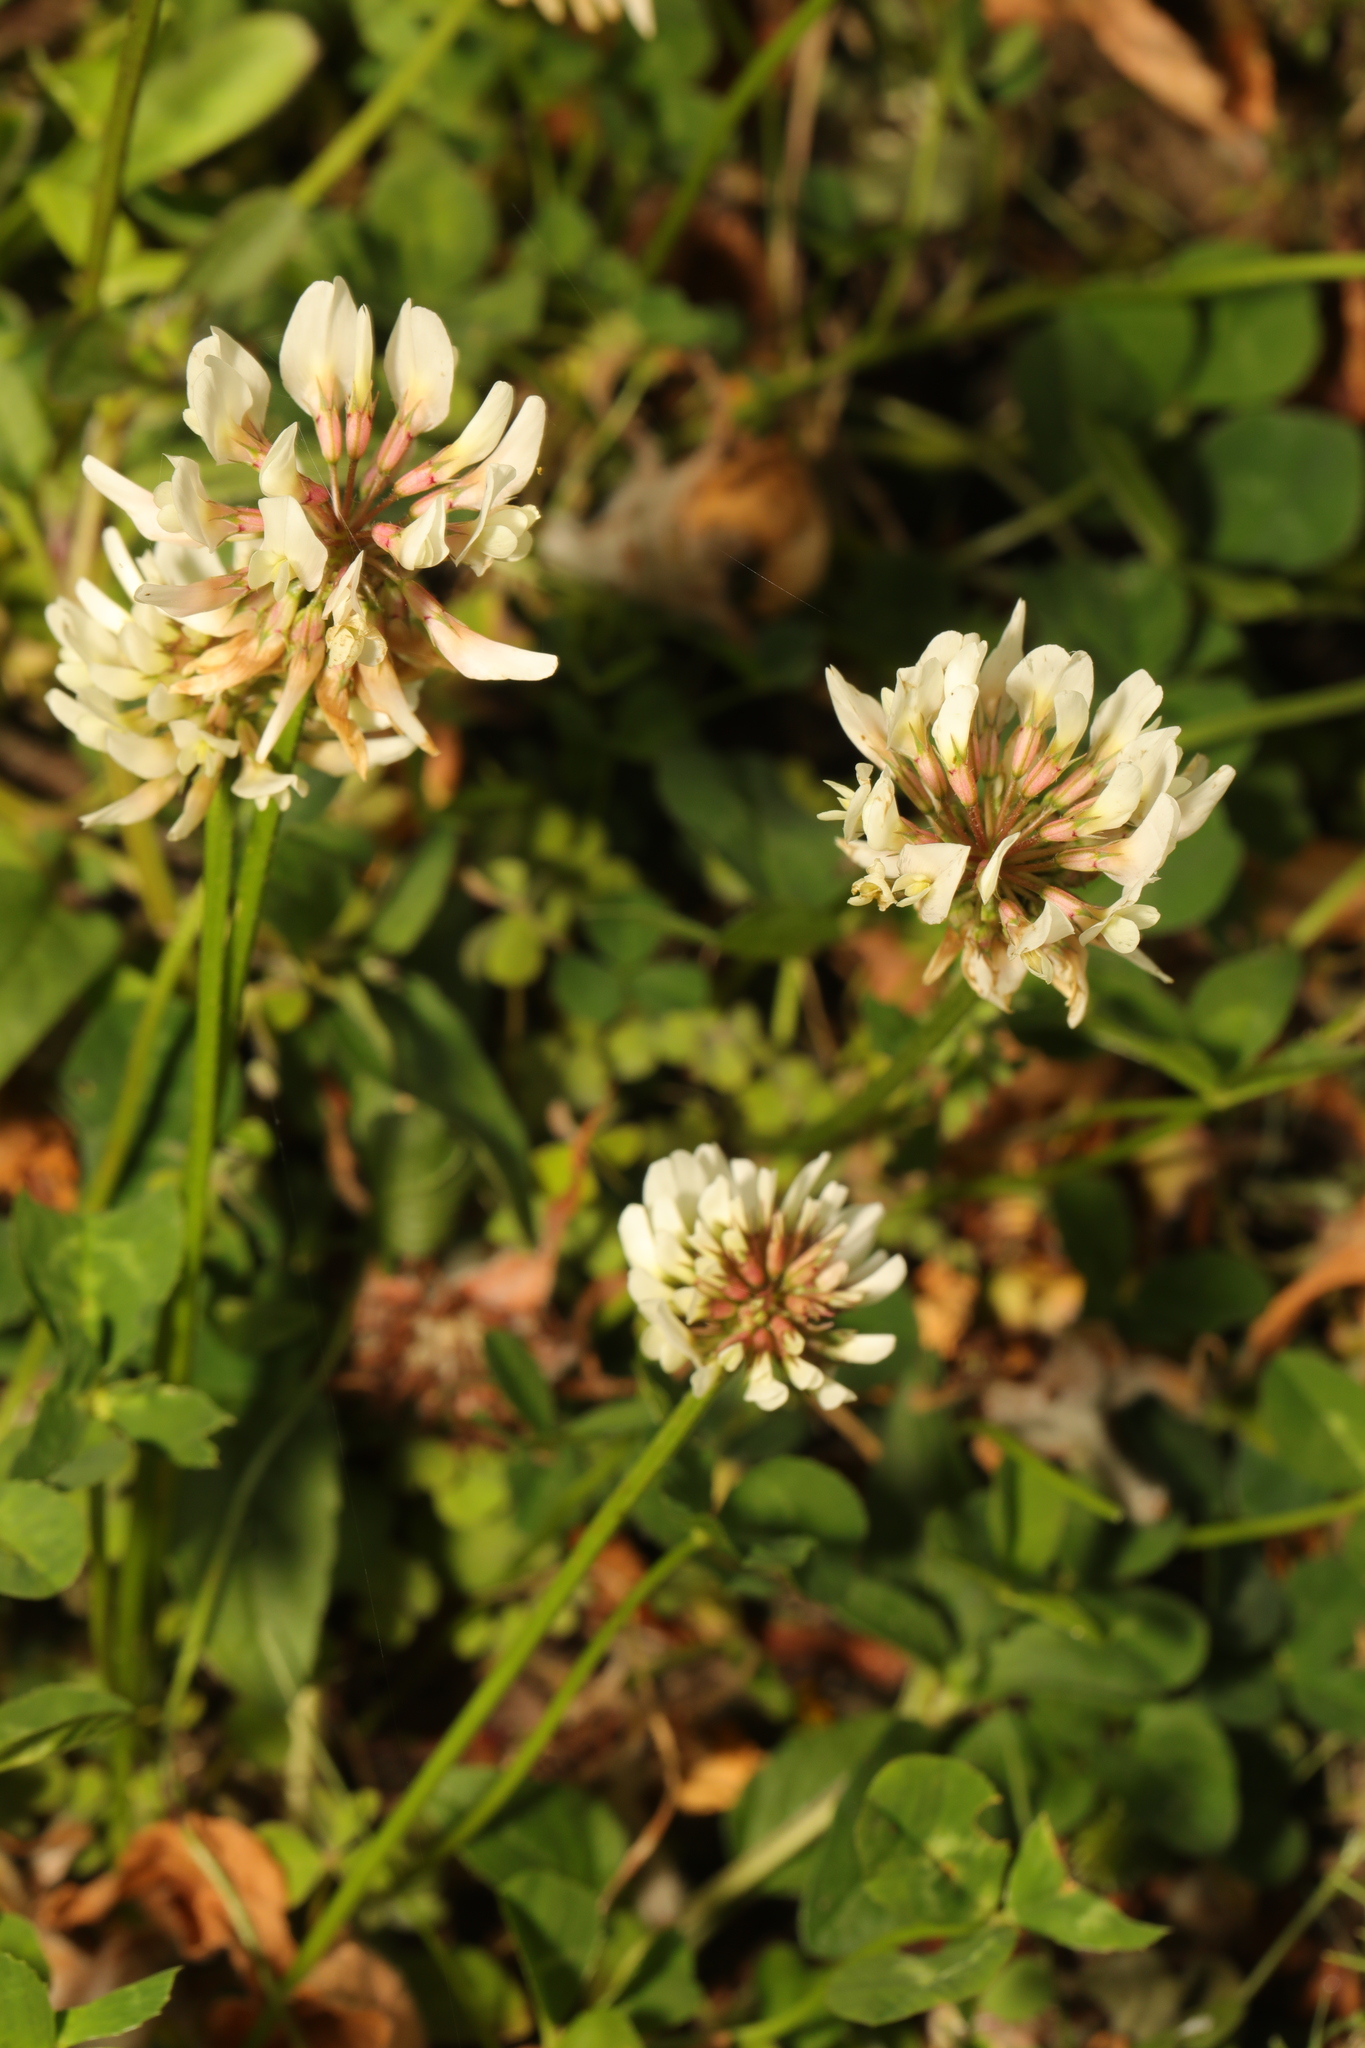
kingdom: Plantae
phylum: Tracheophyta
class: Magnoliopsida
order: Fabales
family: Fabaceae
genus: Trifolium
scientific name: Trifolium repens
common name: White clover
